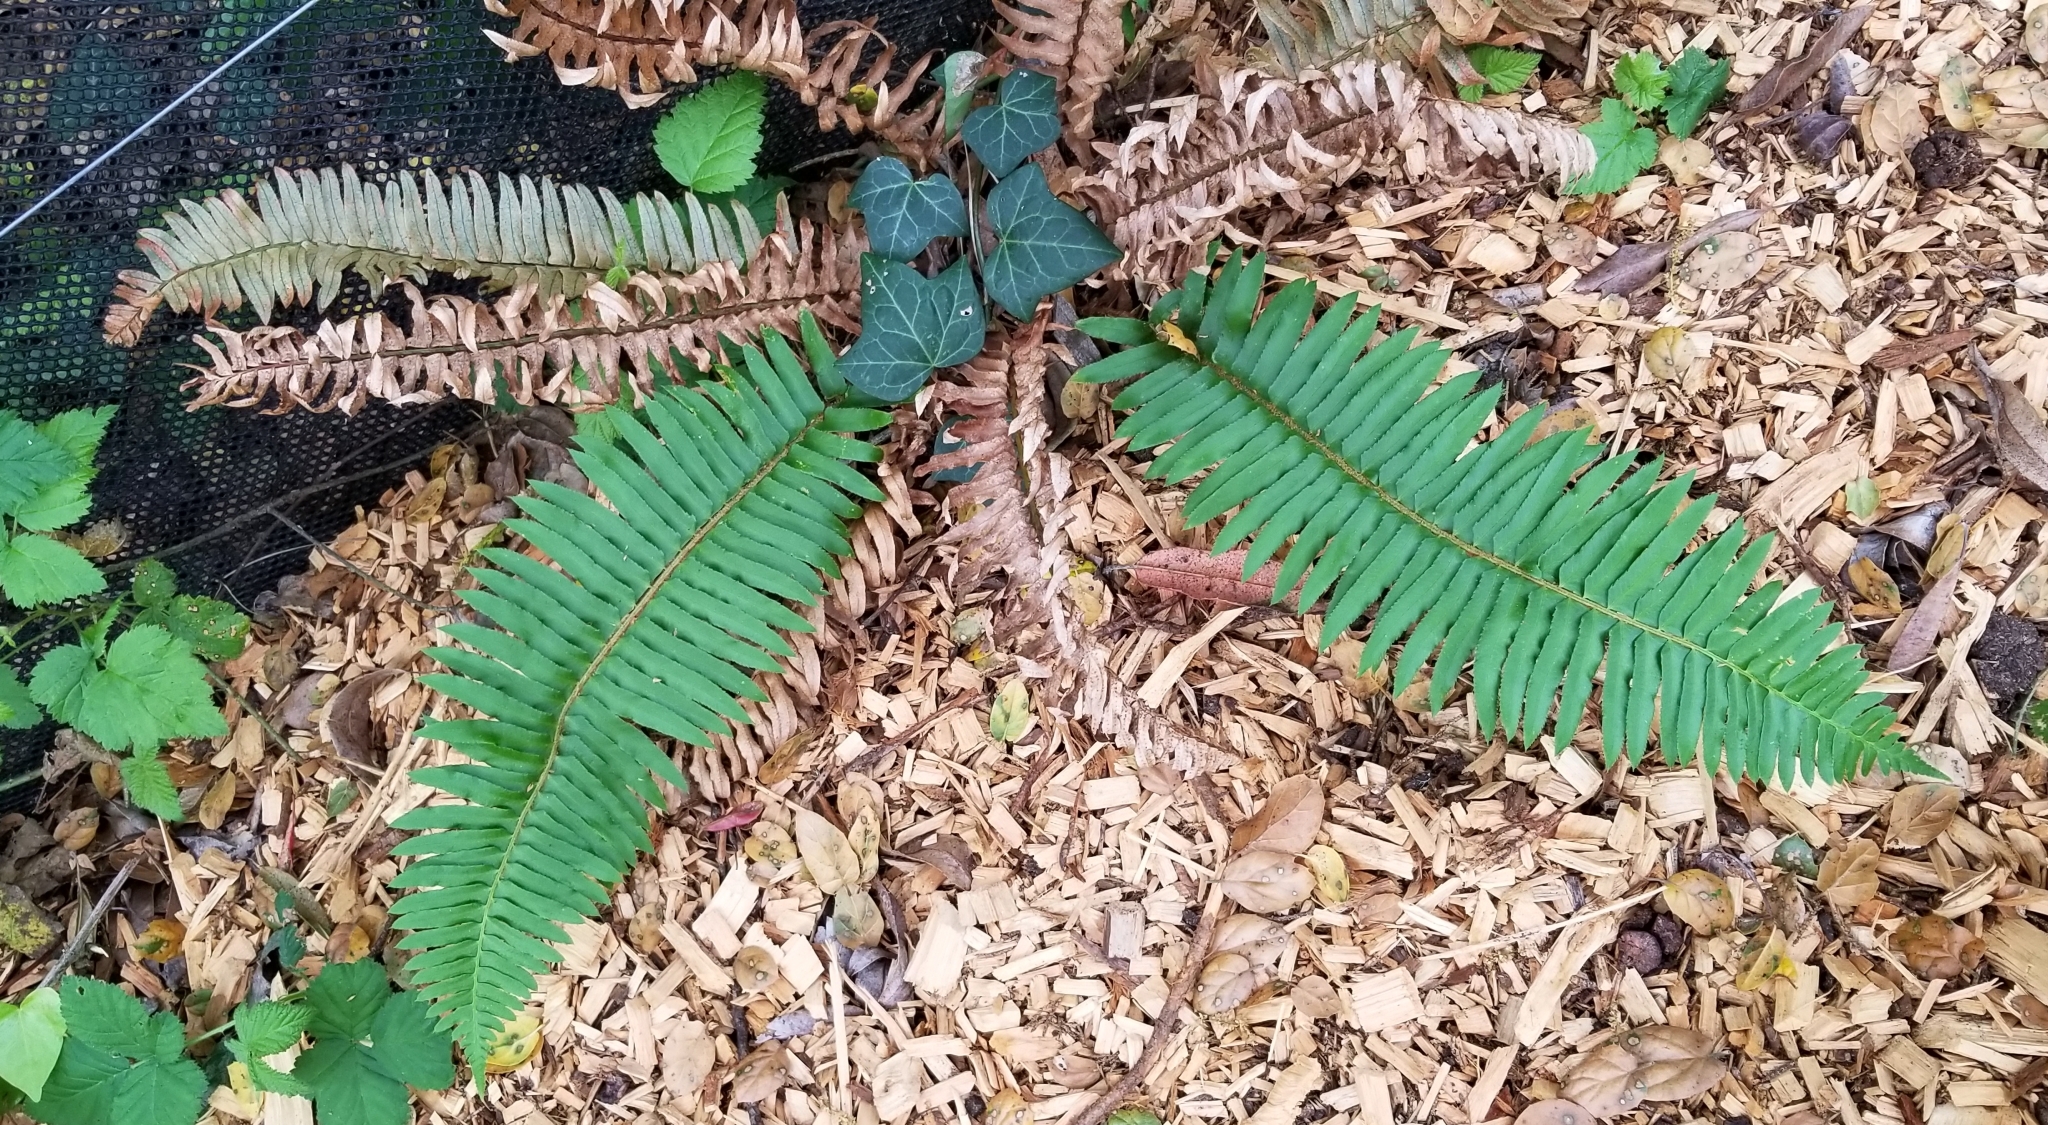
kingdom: Plantae
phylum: Tracheophyta
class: Polypodiopsida
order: Polypodiales
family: Dryopteridaceae
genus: Polystichum
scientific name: Polystichum munitum
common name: Western sword-fern
